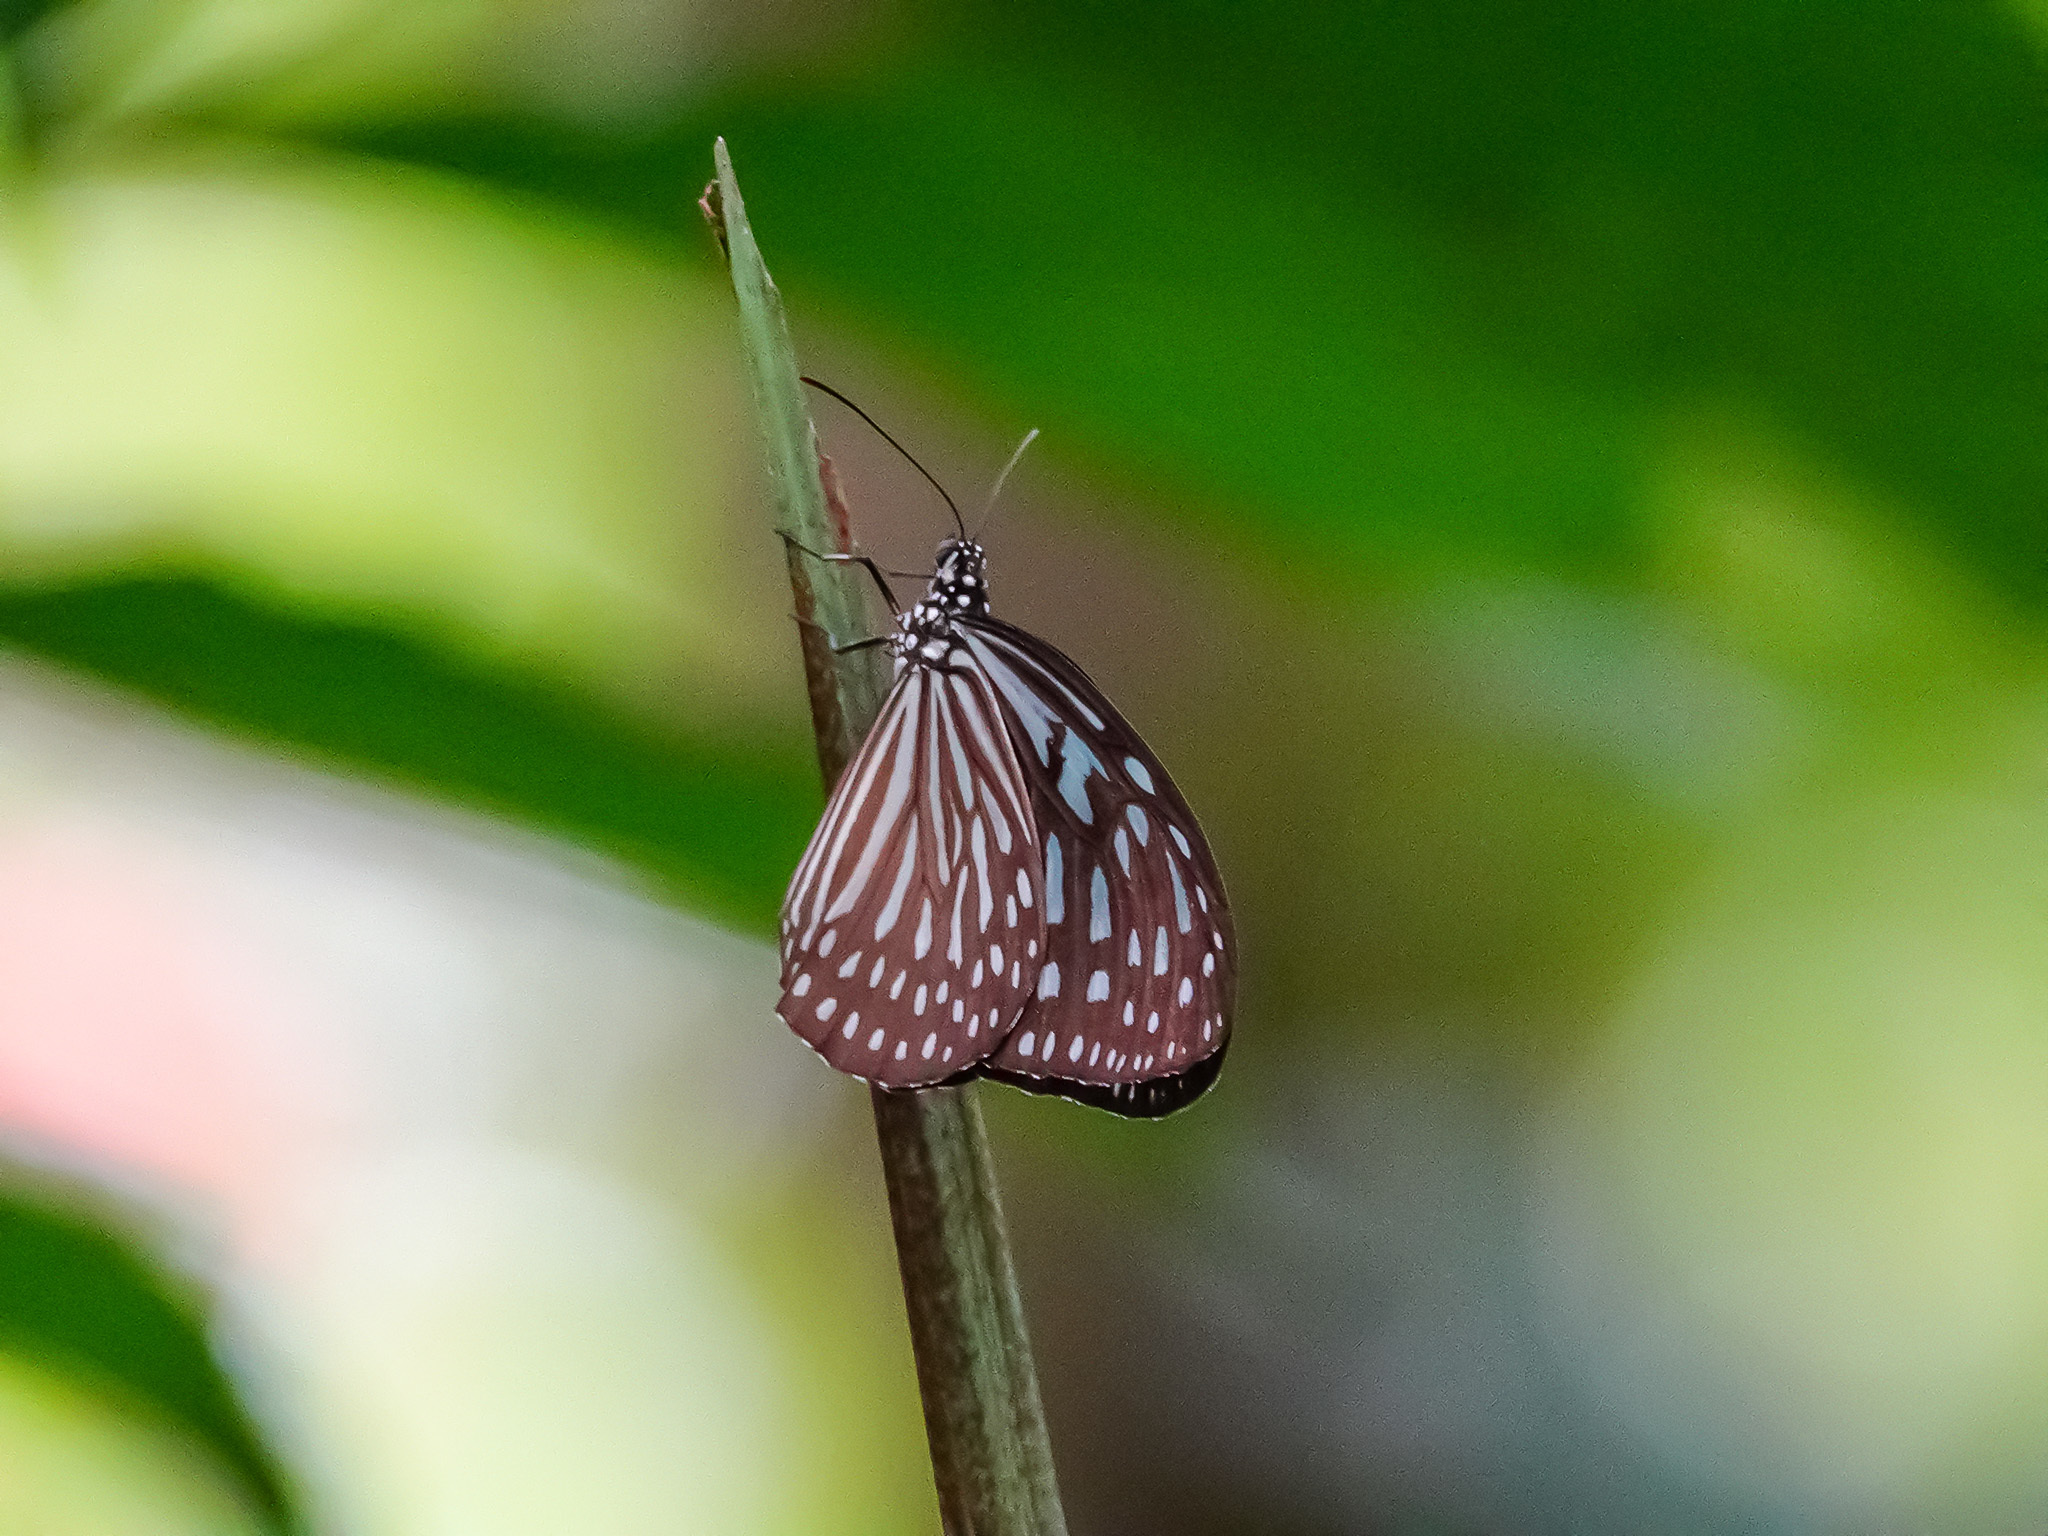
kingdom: Animalia
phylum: Arthropoda
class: Insecta
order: Lepidoptera
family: Nymphalidae
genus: Ideopsis
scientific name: Ideopsis vulgaris
